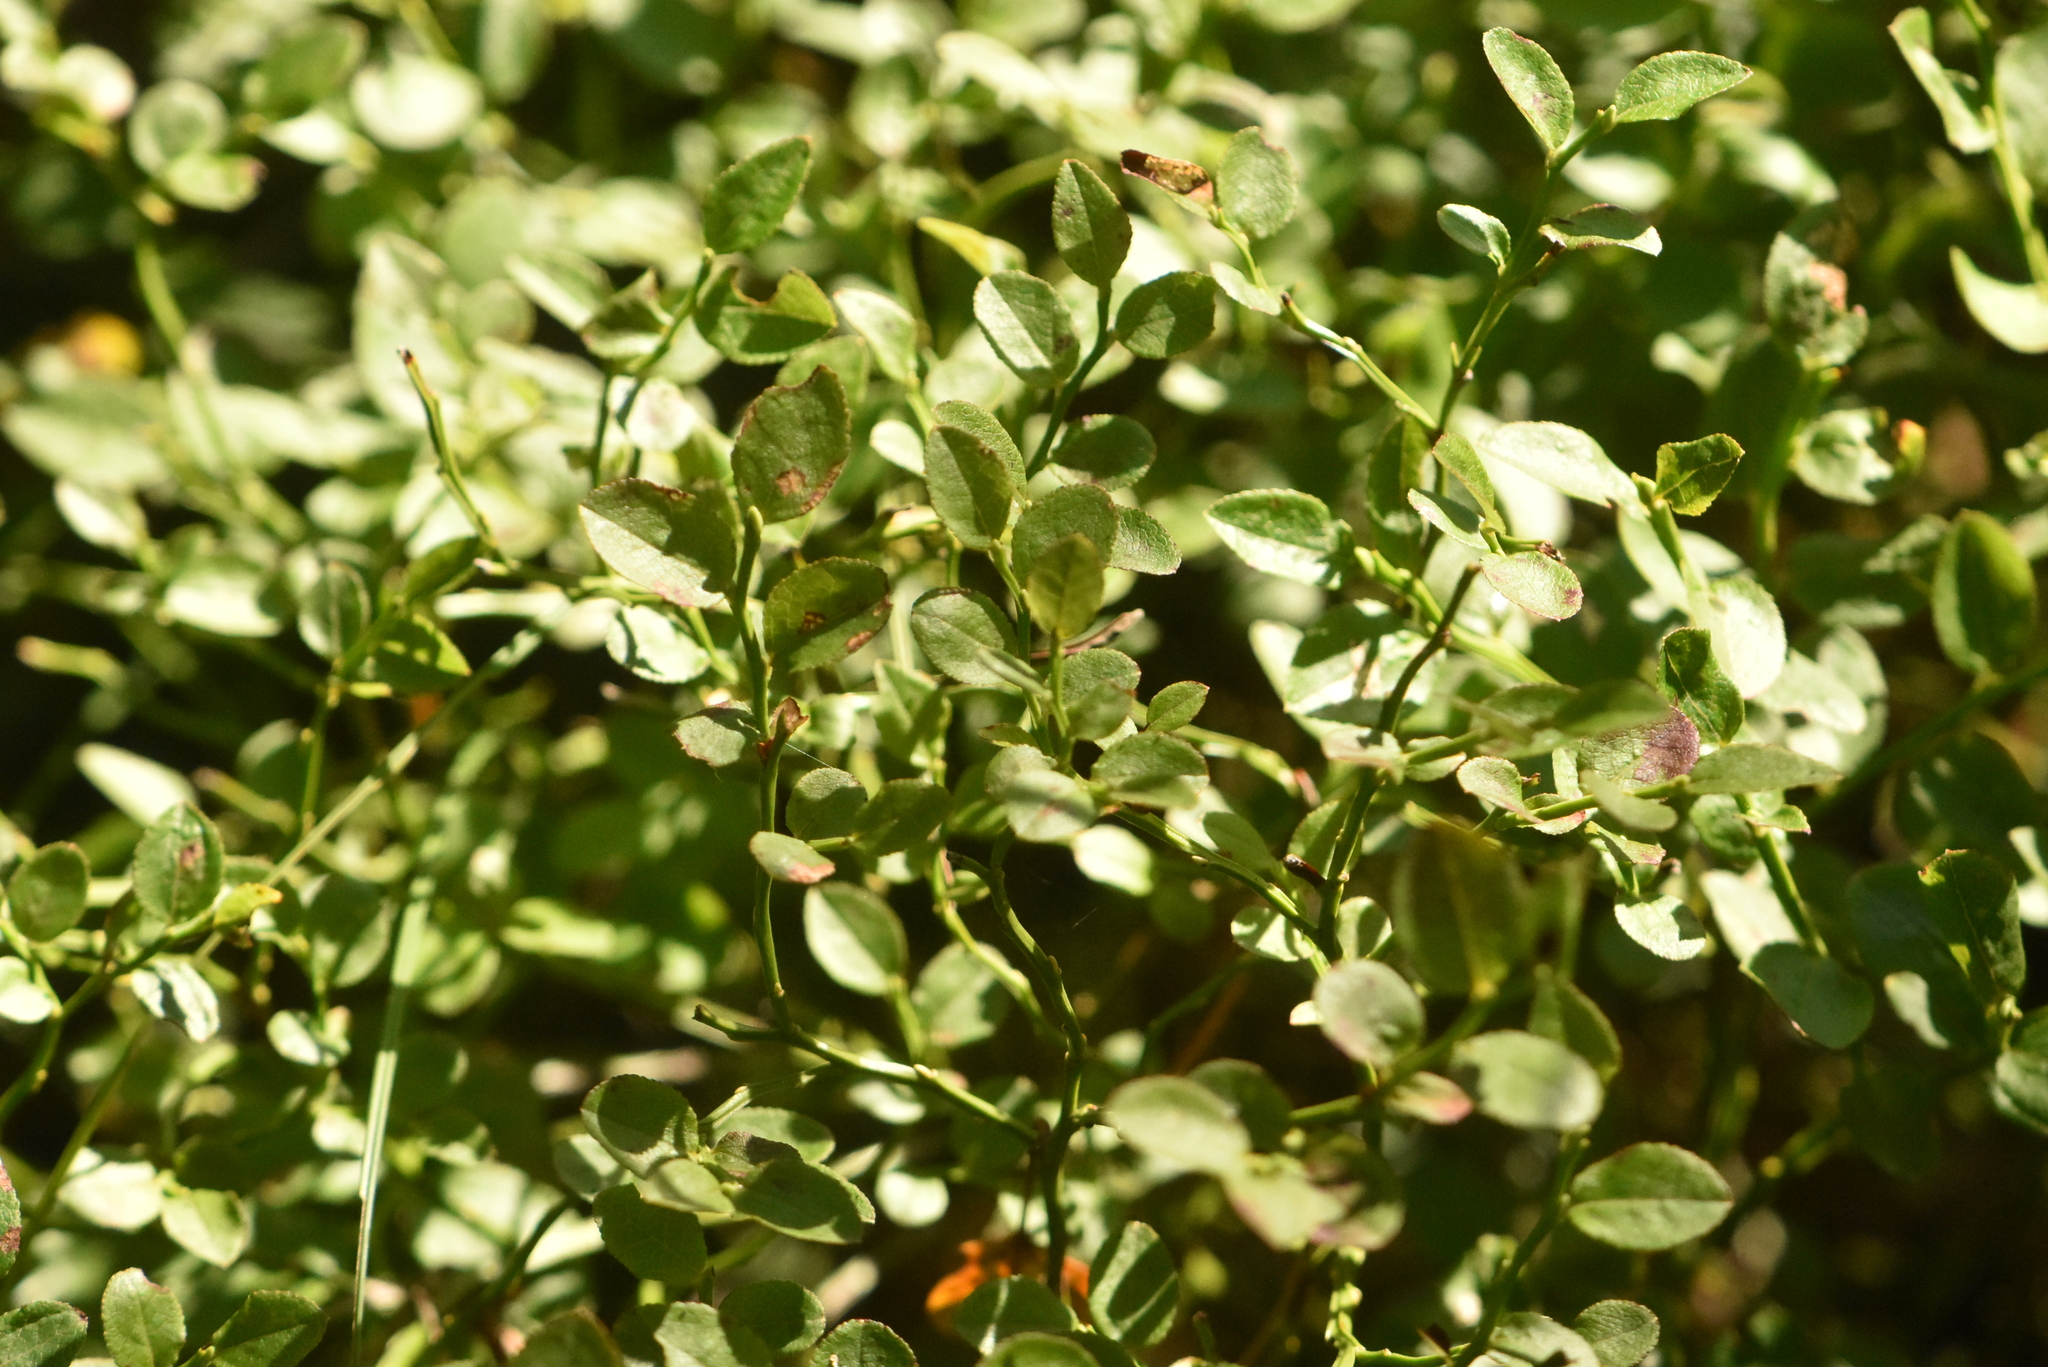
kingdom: Plantae
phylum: Tracheophyta
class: Magnoliopsida
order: Ericales
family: Ericaceae
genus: Vaccinium
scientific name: Vaccinium myrtillus
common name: Bilberry
